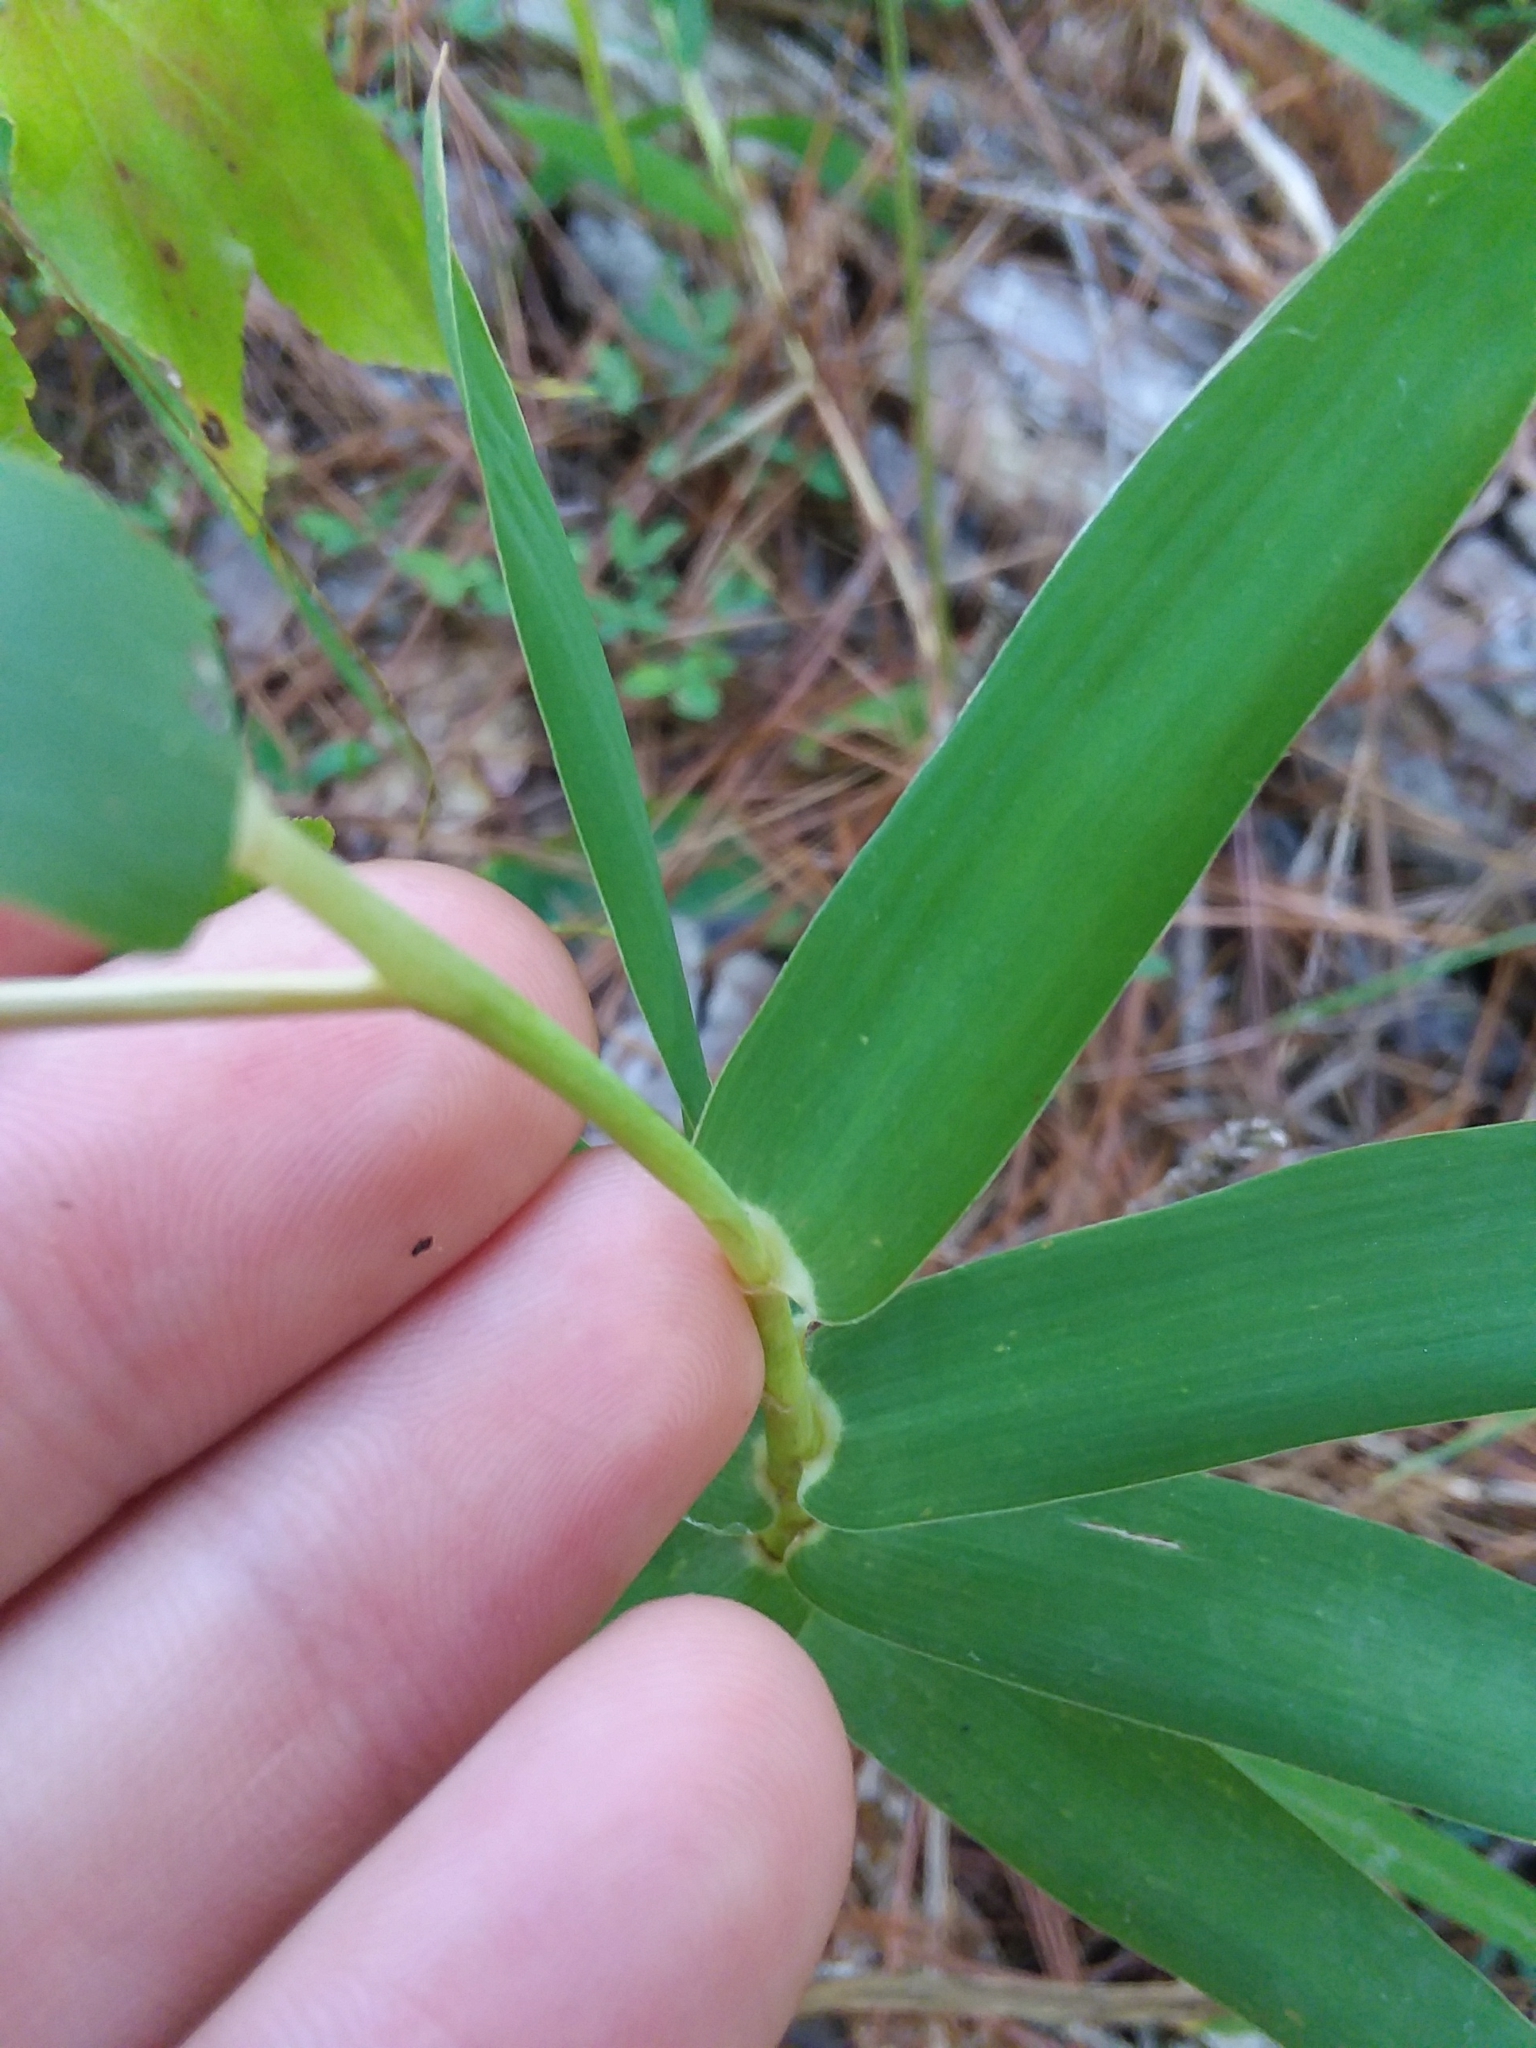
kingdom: Plantae
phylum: Tracheophyta
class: Liliopsida
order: Poales
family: Poaceae
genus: Gymnopogon
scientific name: Gymnopogon ambiguus
